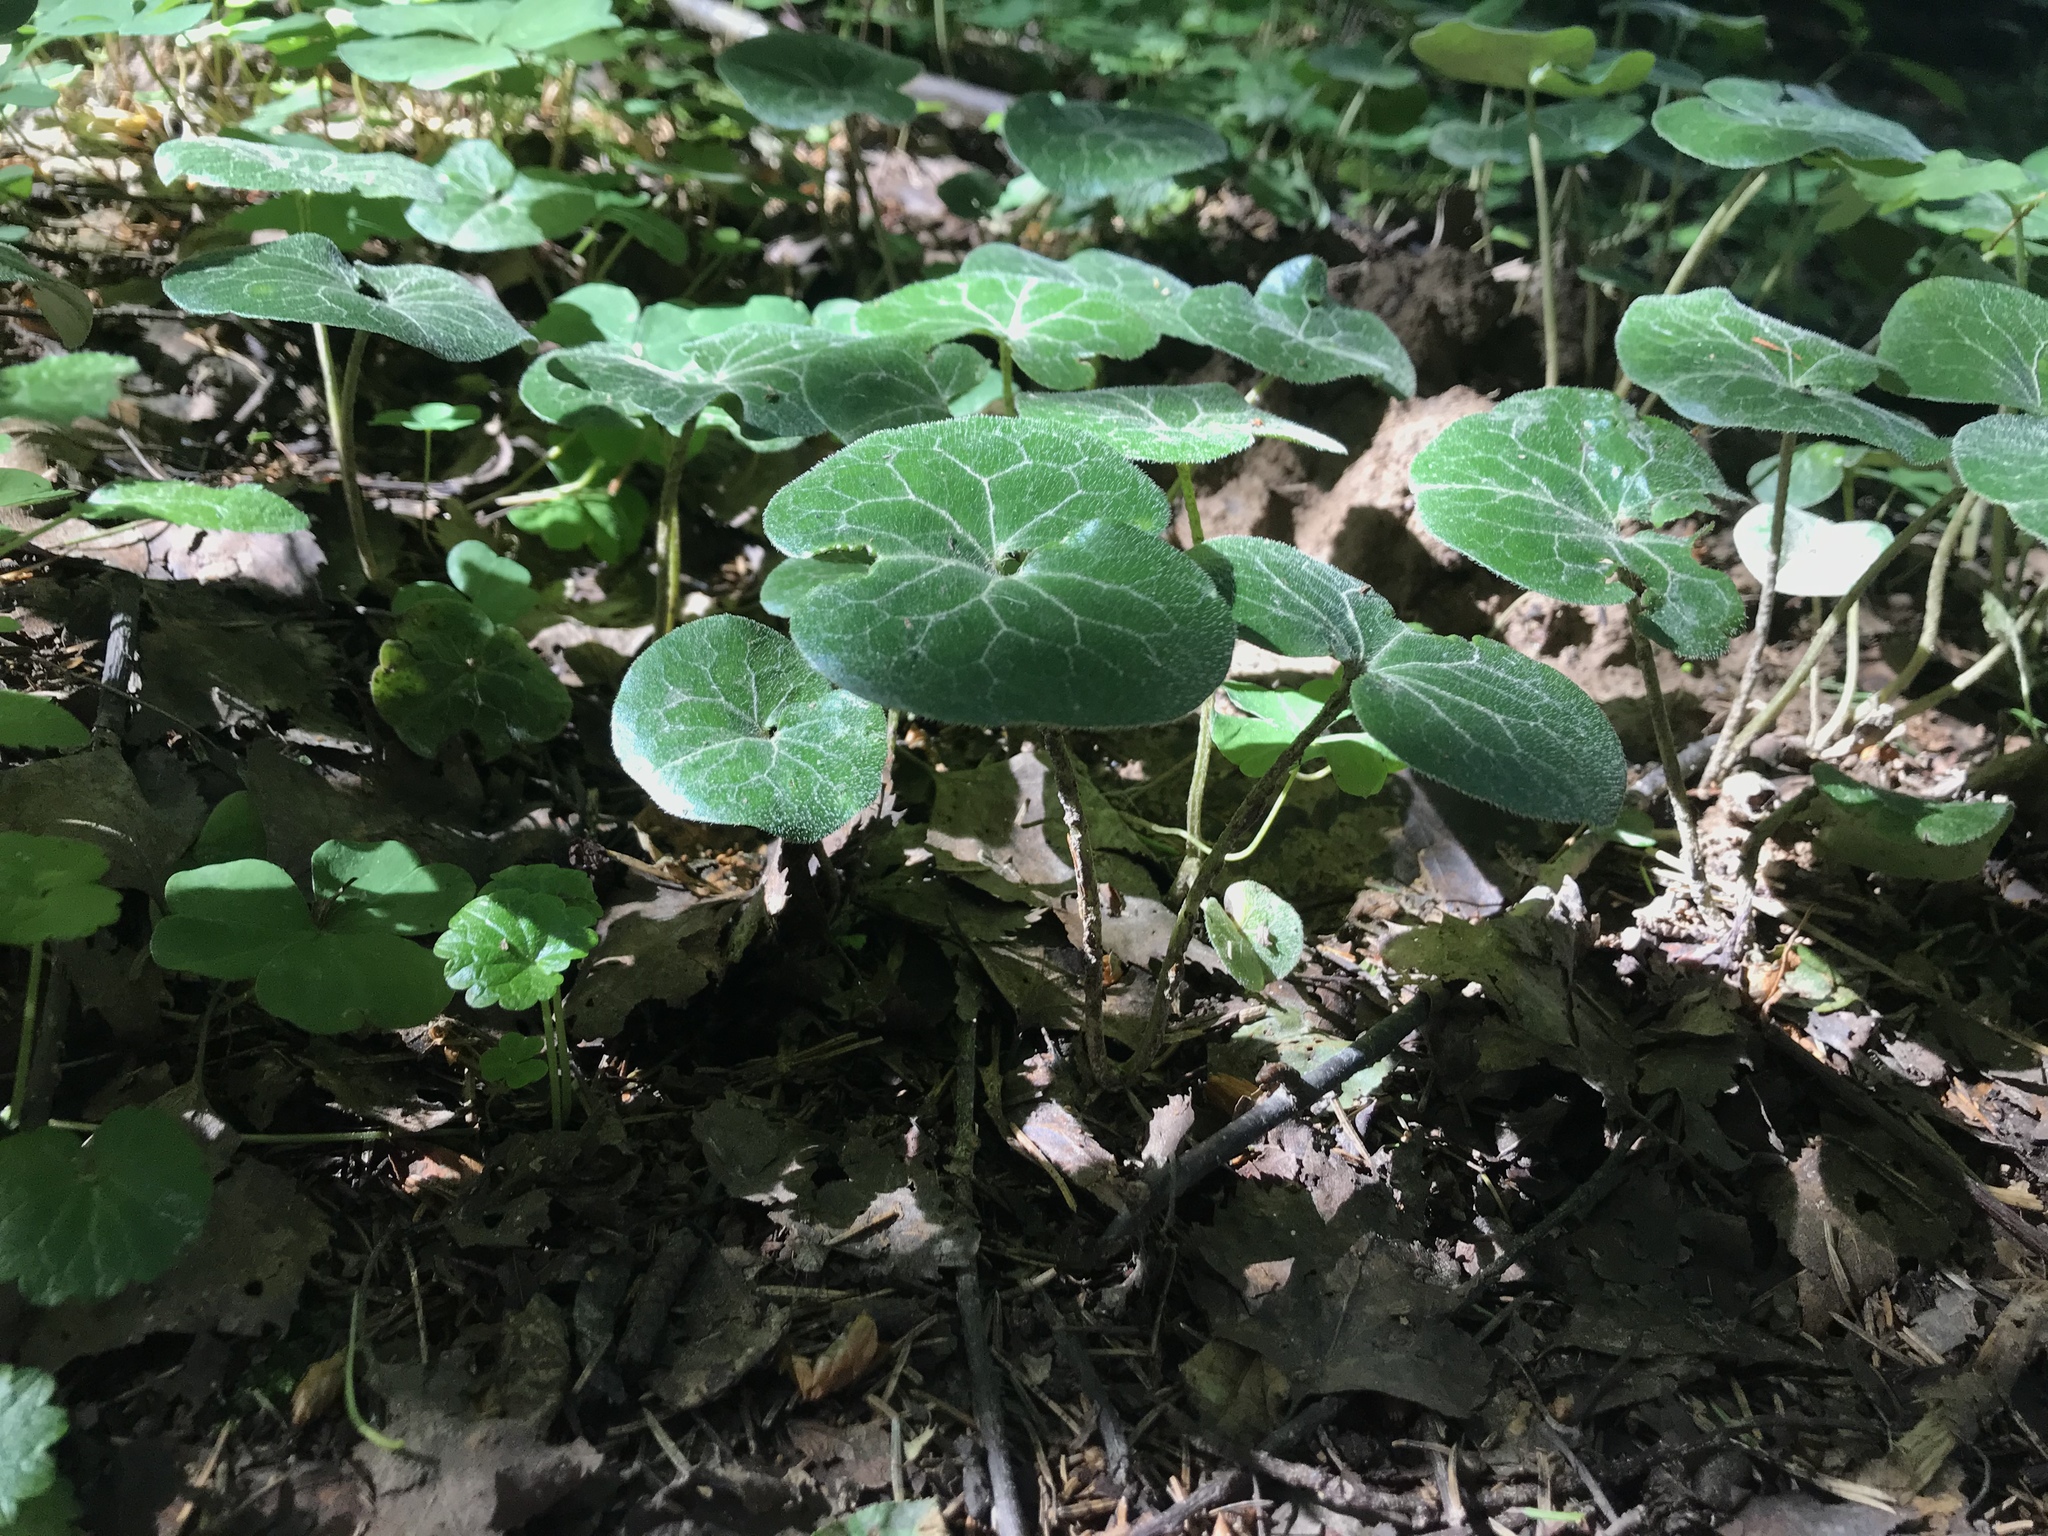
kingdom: Plantae
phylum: Tracheophyta
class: Magnoliopsida
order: Piperales
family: Aristolochiaceae
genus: Asarum
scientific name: Asarum europaeum
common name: Asarabacca
